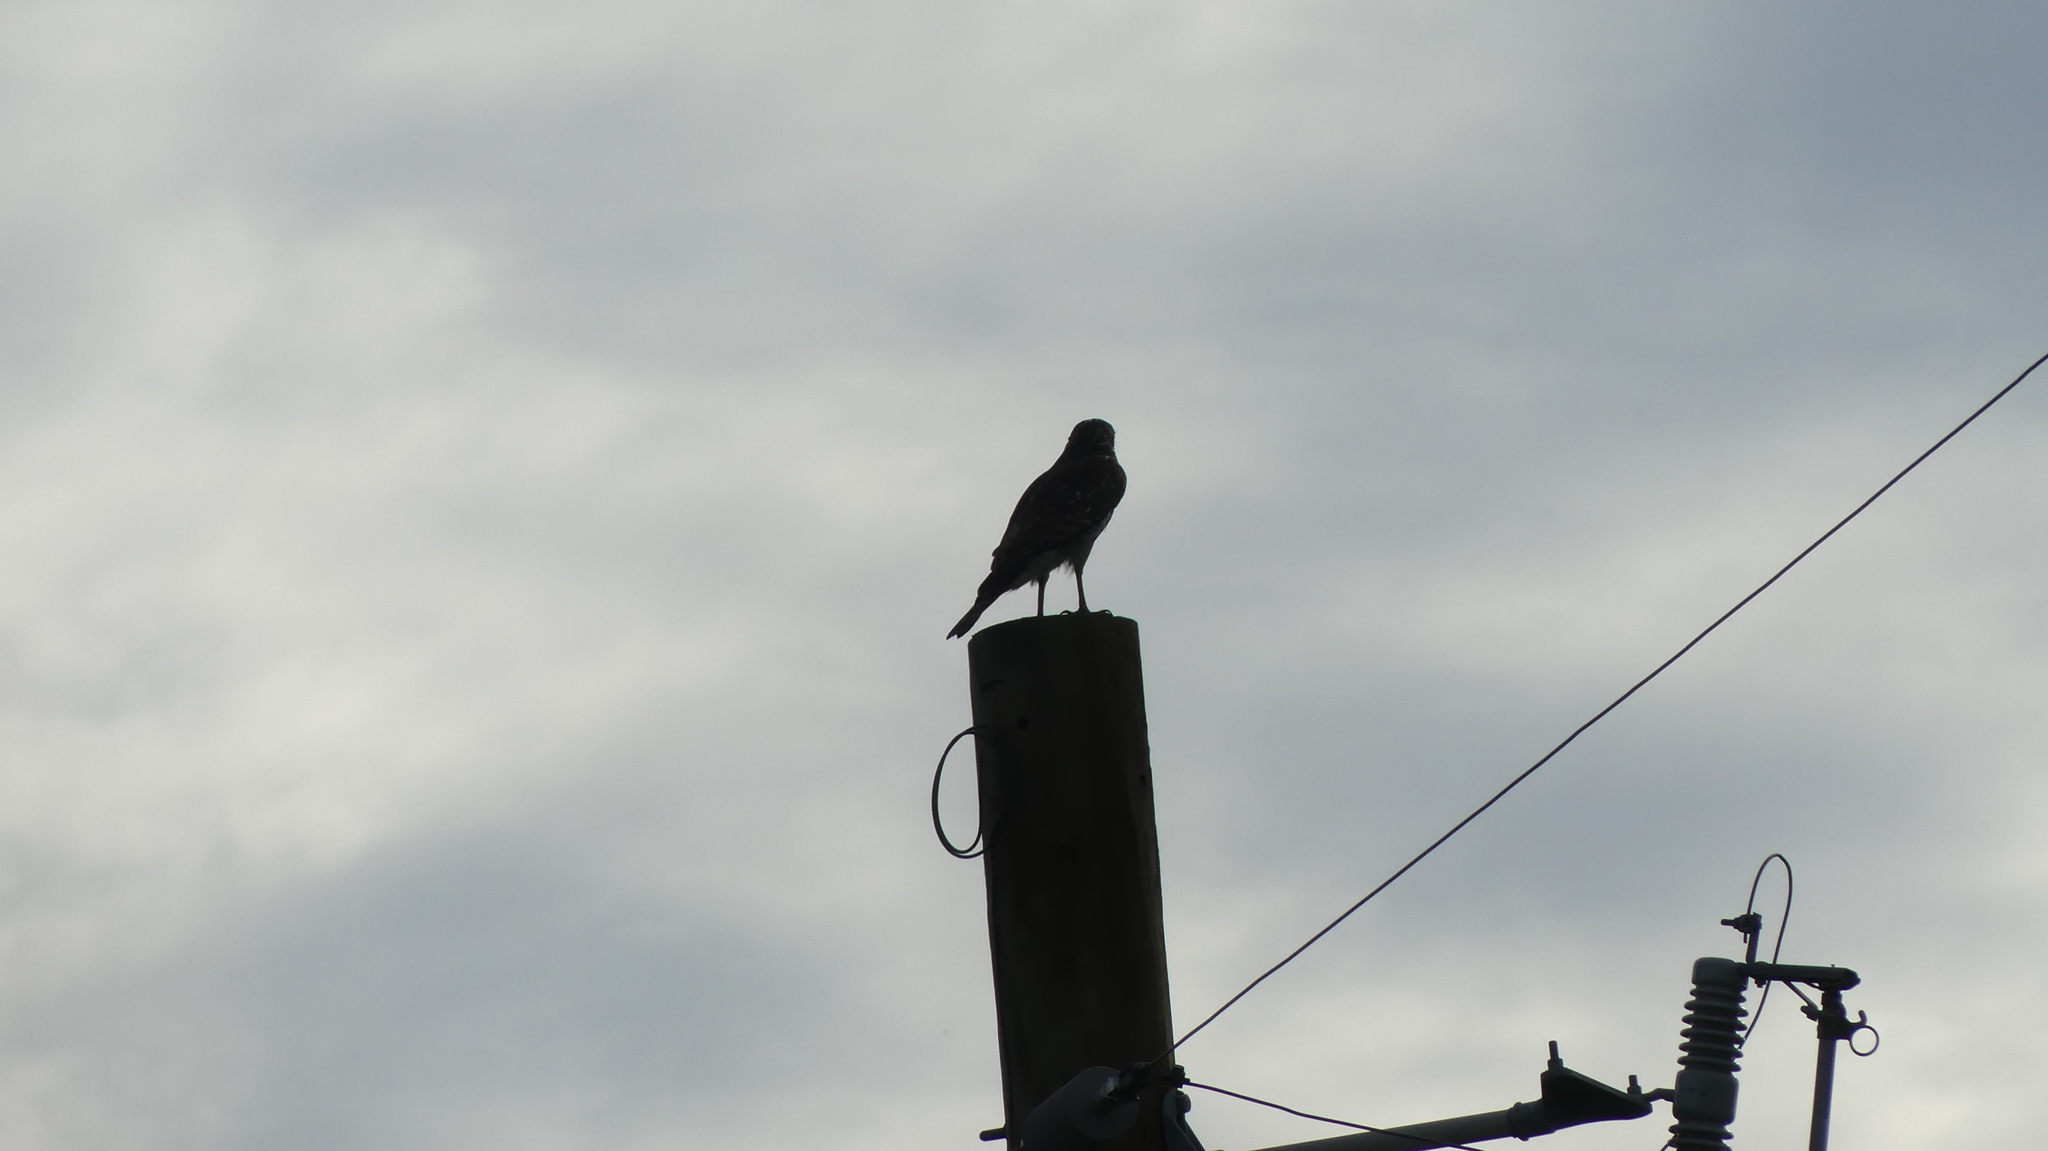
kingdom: Animalia
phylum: Chordata
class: Aves
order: Accipitriformes
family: Accipitridae
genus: Buteo
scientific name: Buteo lineatus
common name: Red-shouldered hawk
